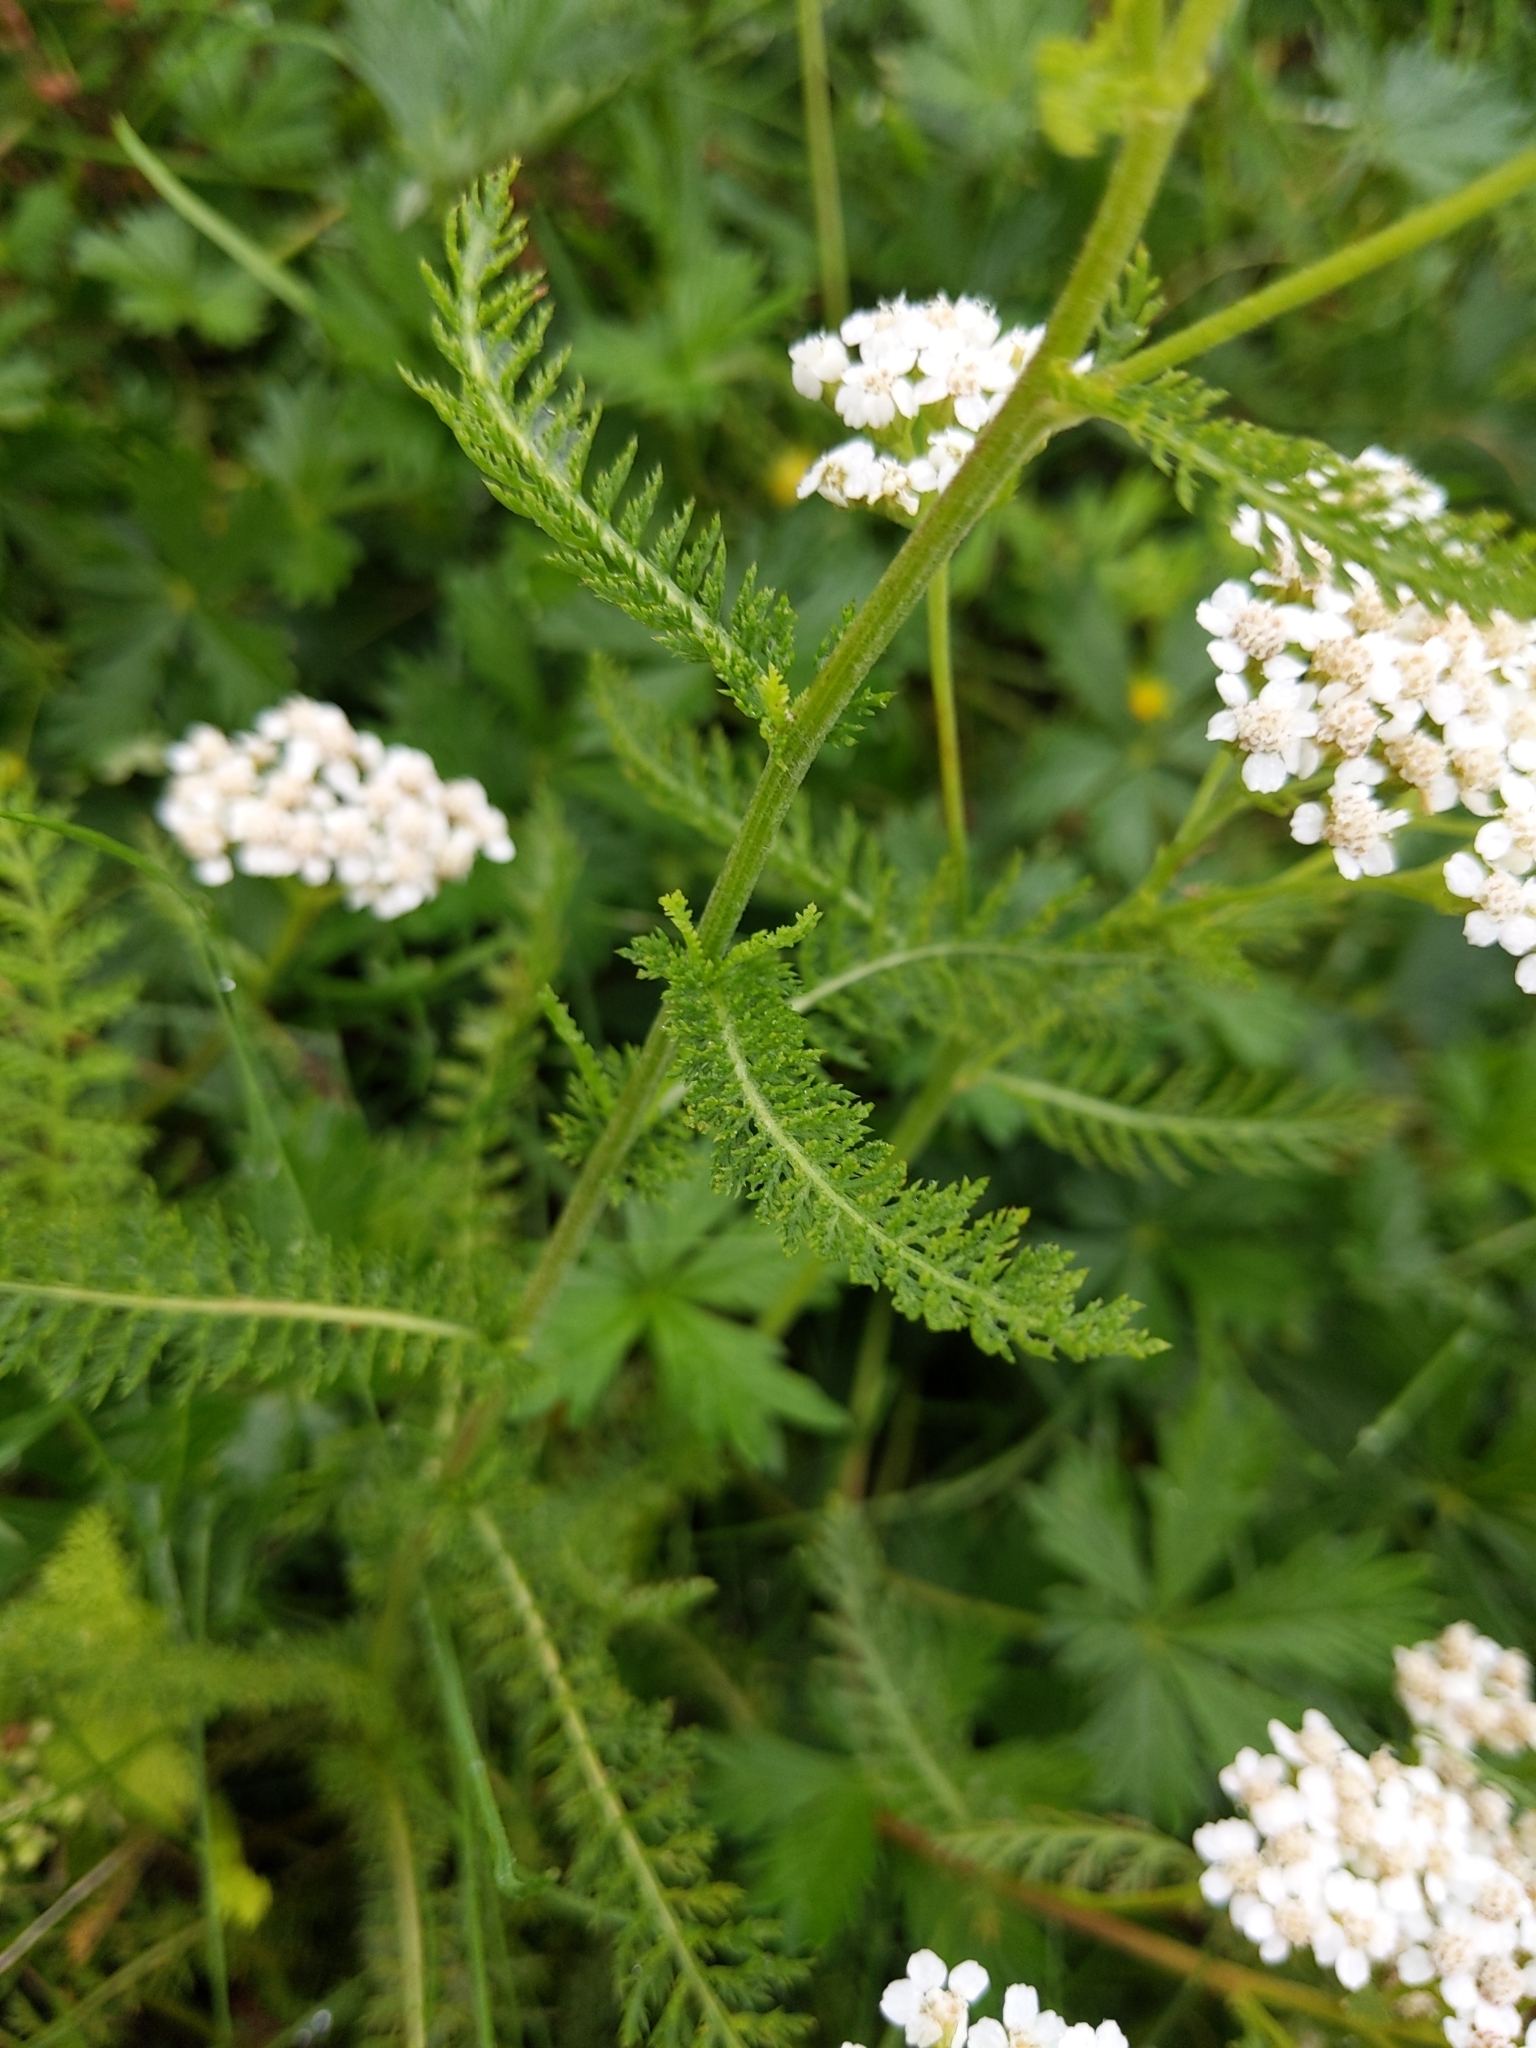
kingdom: Plantae
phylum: Tracheophyta
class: Magnoliopsida
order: Asterales
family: Asteraceae
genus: Achillea
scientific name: Achillea millefolium
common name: Yarrow
